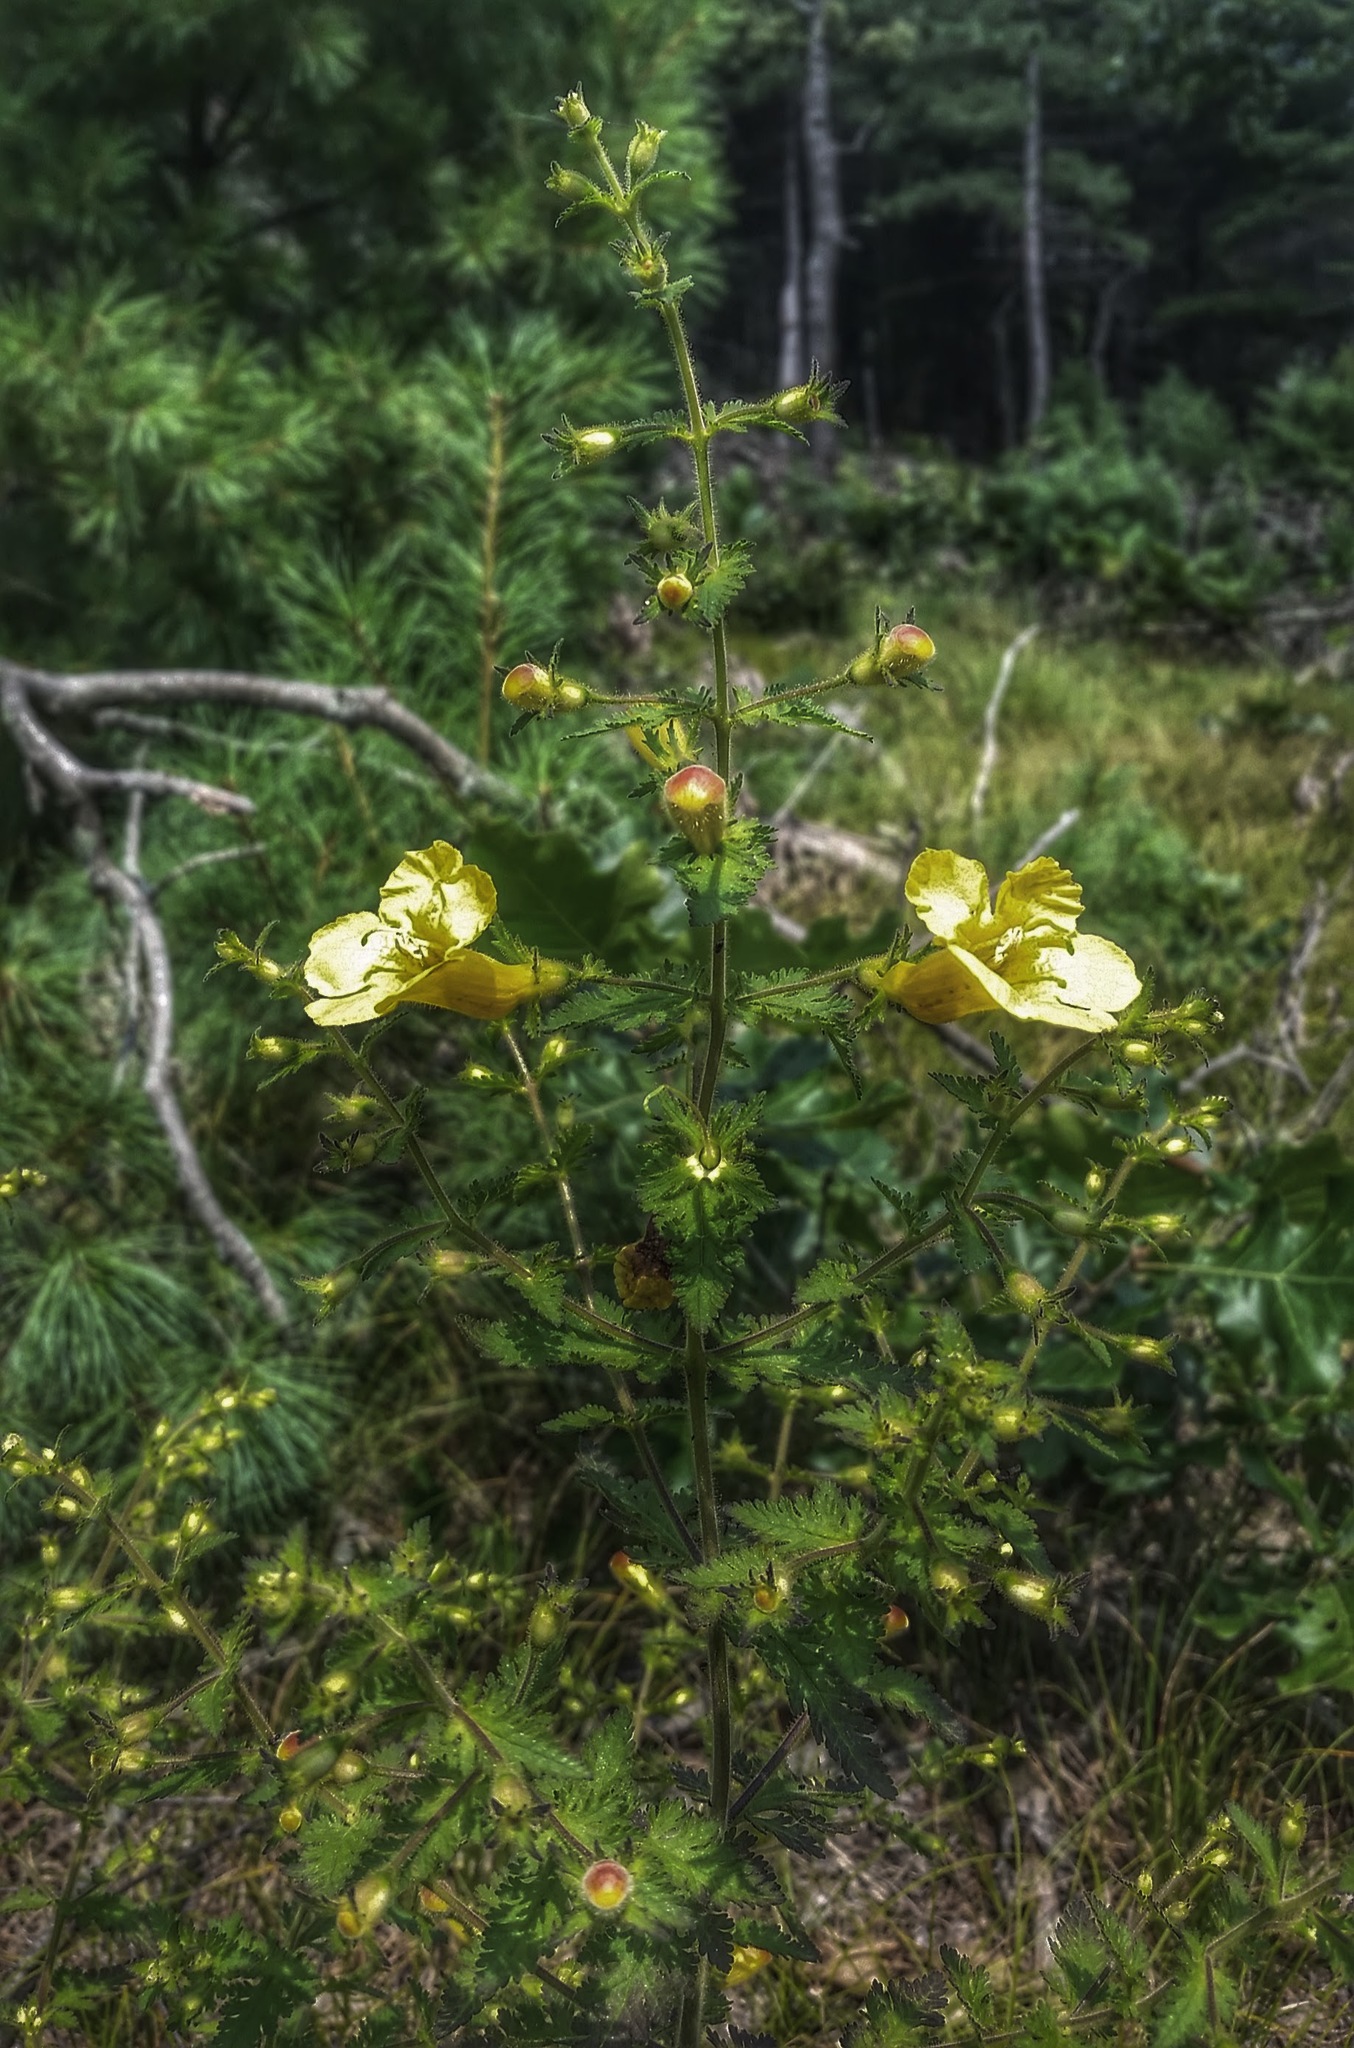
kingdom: Plantae
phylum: Tracheophyta
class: Magnoliopsida
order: Lamiales
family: Orobanchaceae
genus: Aureolaria
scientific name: Aureolaria pedicularia
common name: Annual false foxglove
